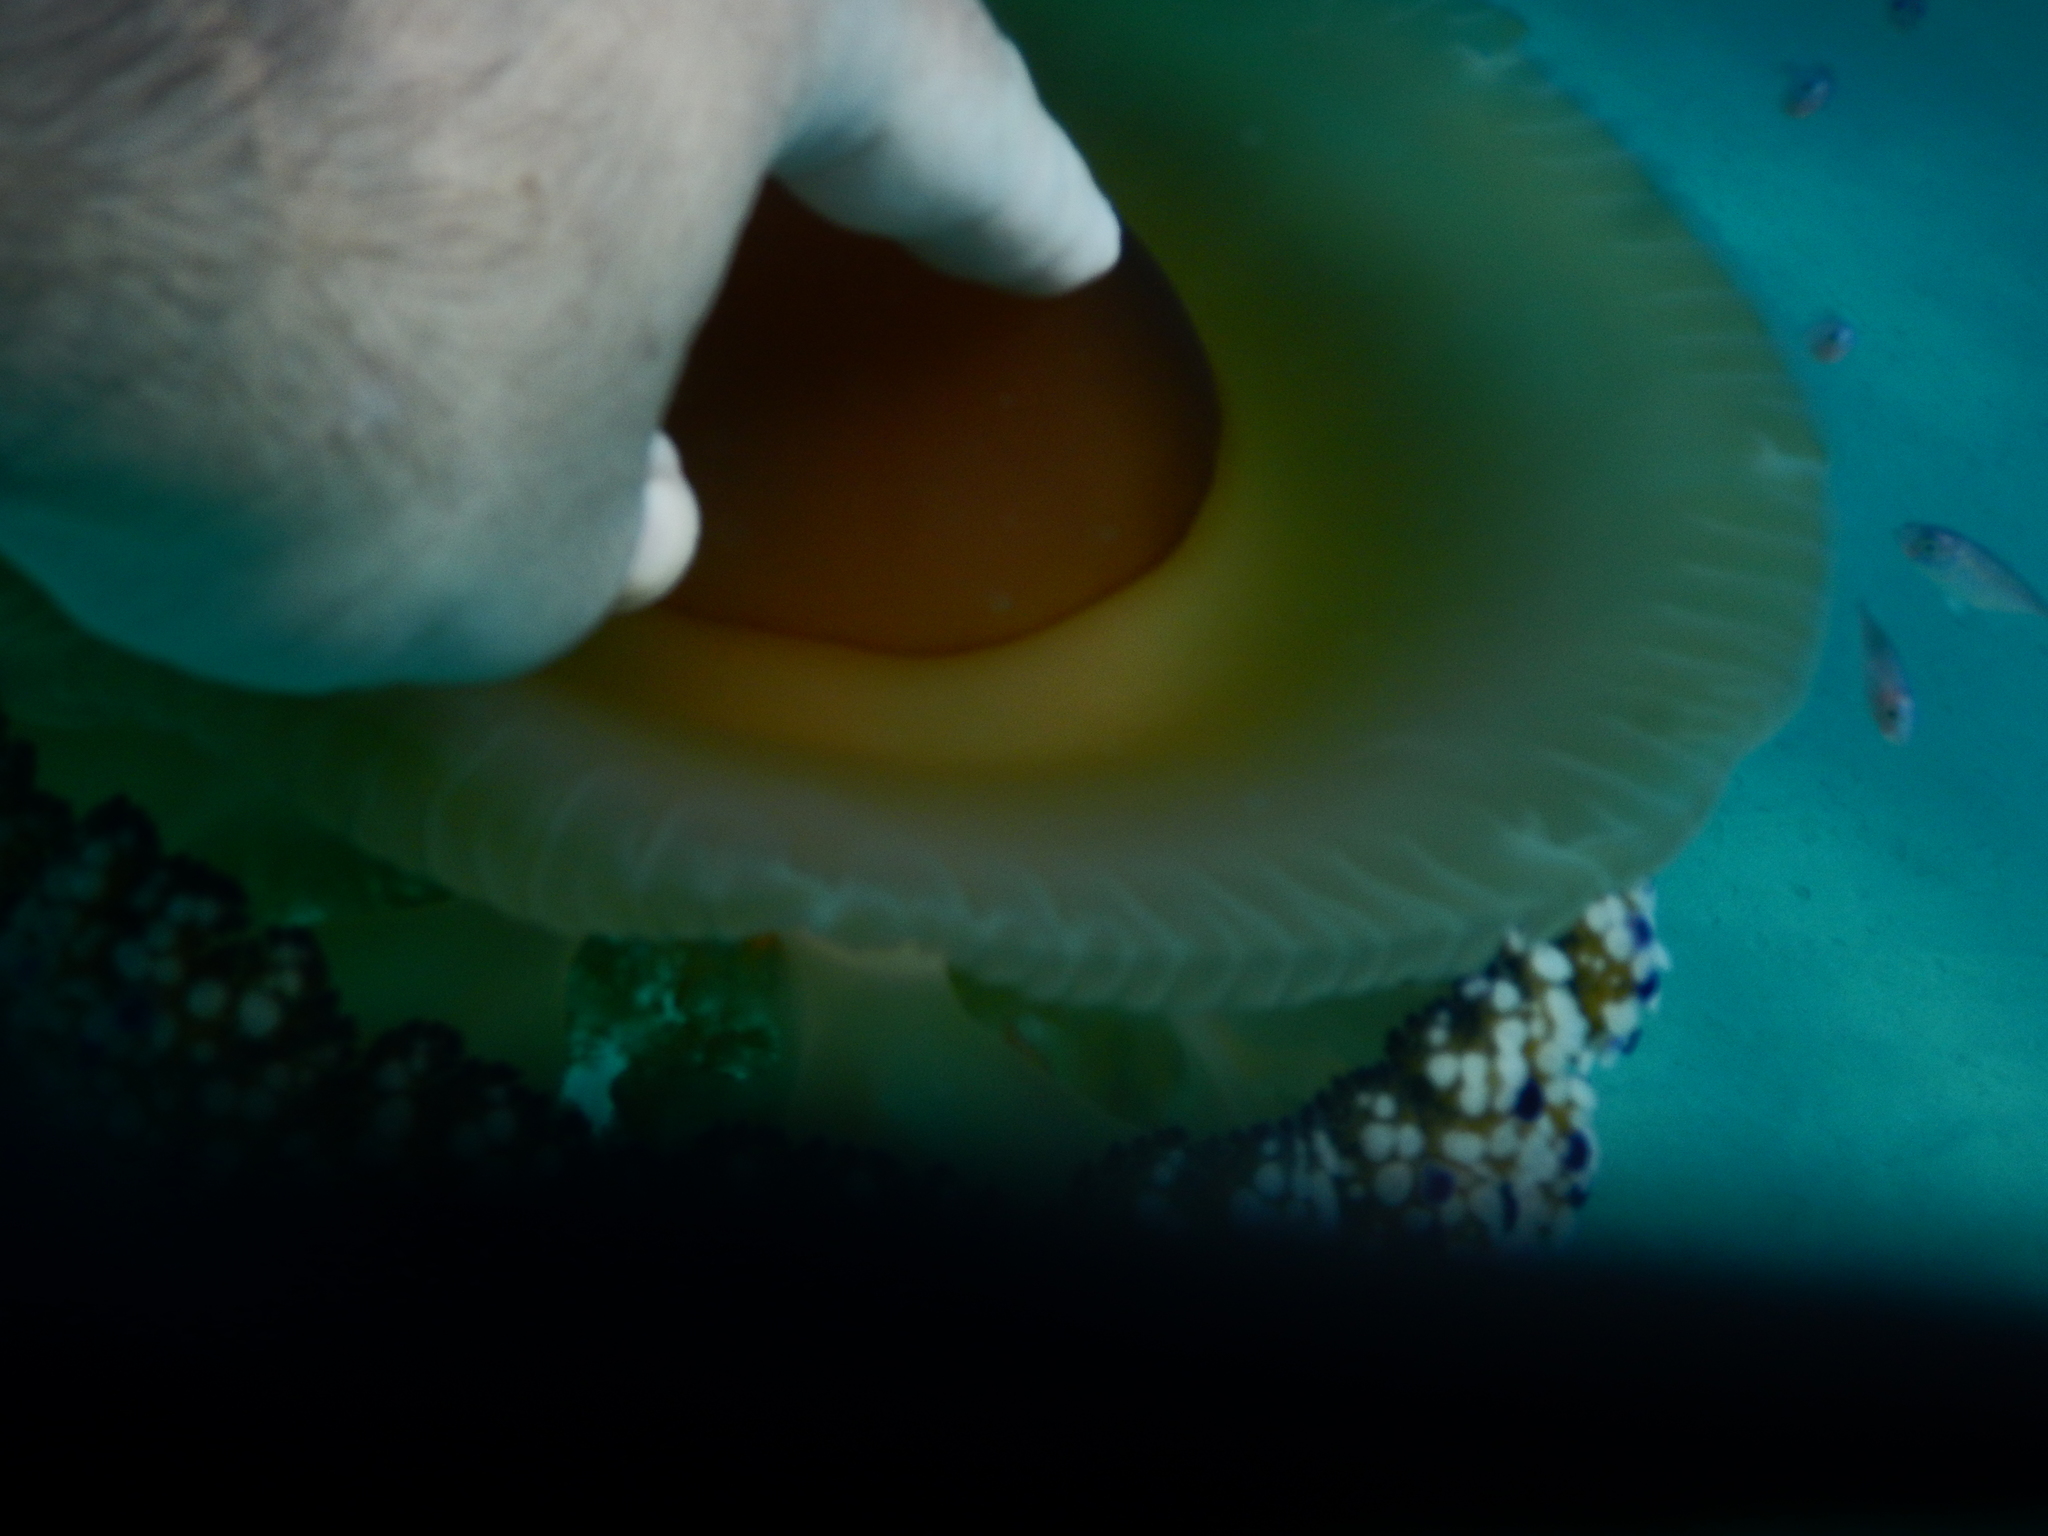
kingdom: Animalia
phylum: Cnidaria
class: Scyphozoa
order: Rhizostomeae
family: Cepheidae
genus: Cotylorhiza
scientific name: Cotylorhiza tuberculata
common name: Mediterranean jelly
